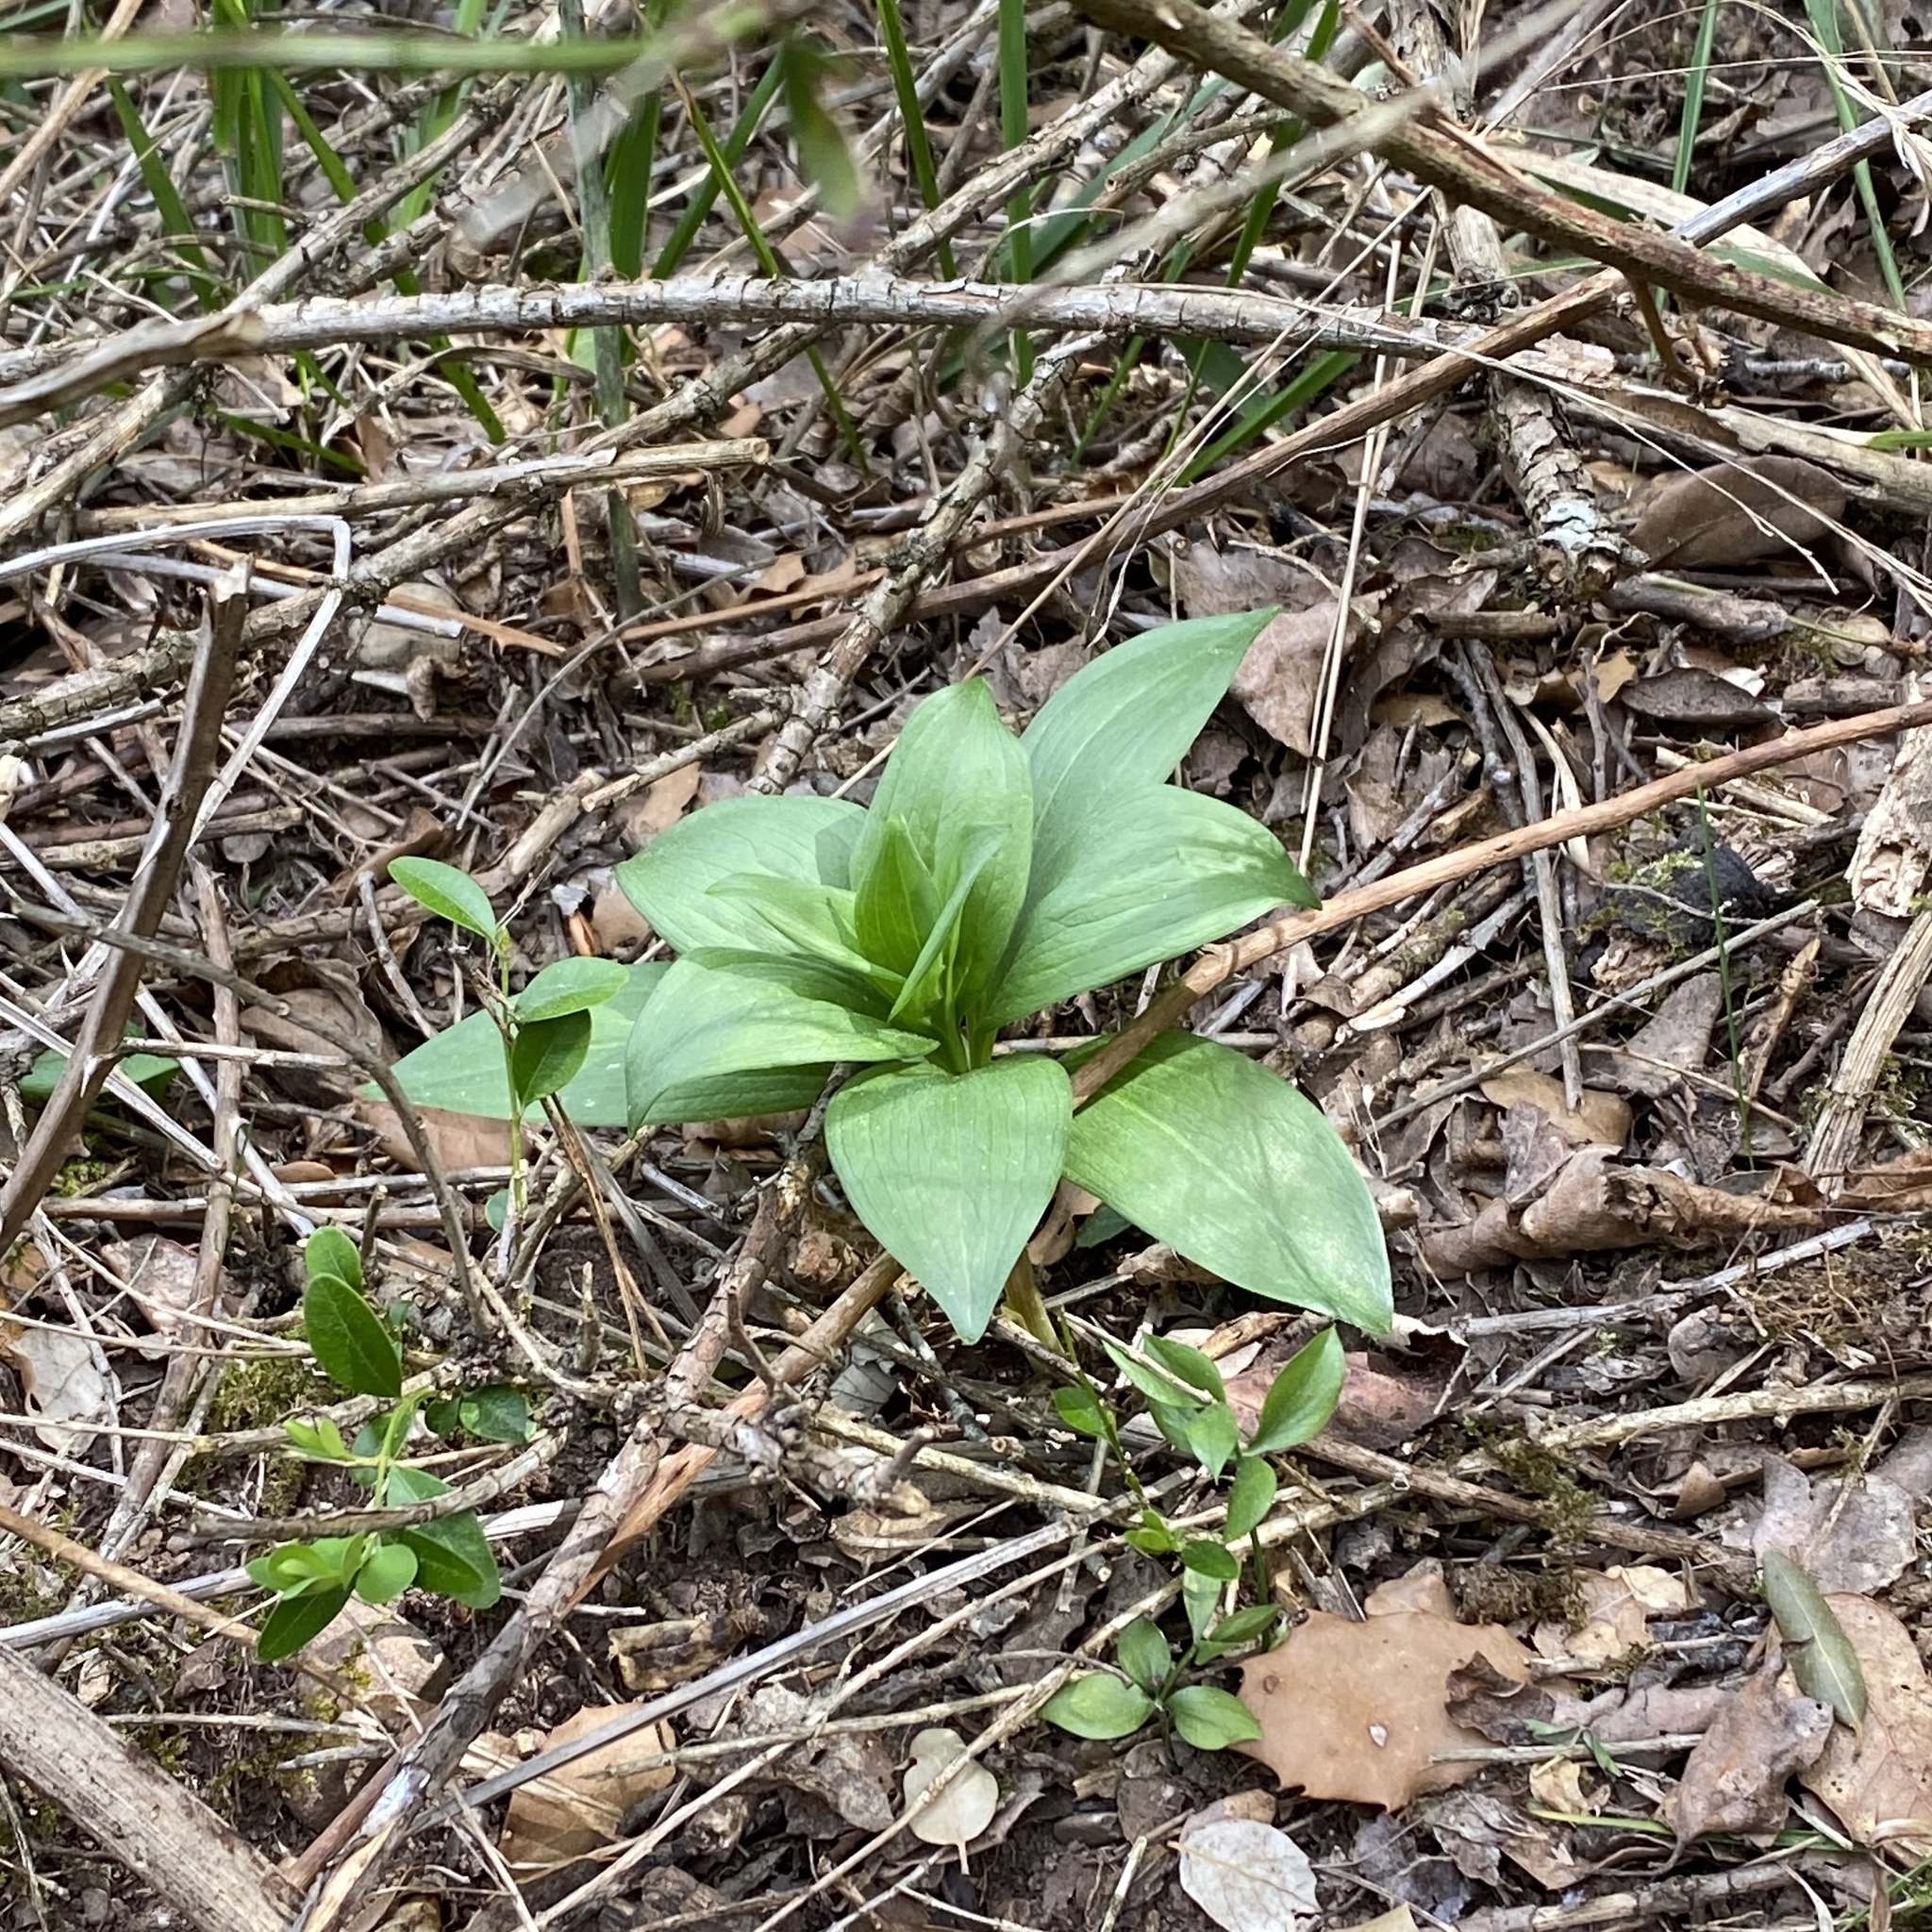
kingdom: Plantae
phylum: Tracheophyta
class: Liliopsida
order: Liliales
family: Liliaceae
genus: Lilium
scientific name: Lilium martagon
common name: Martagon lily
